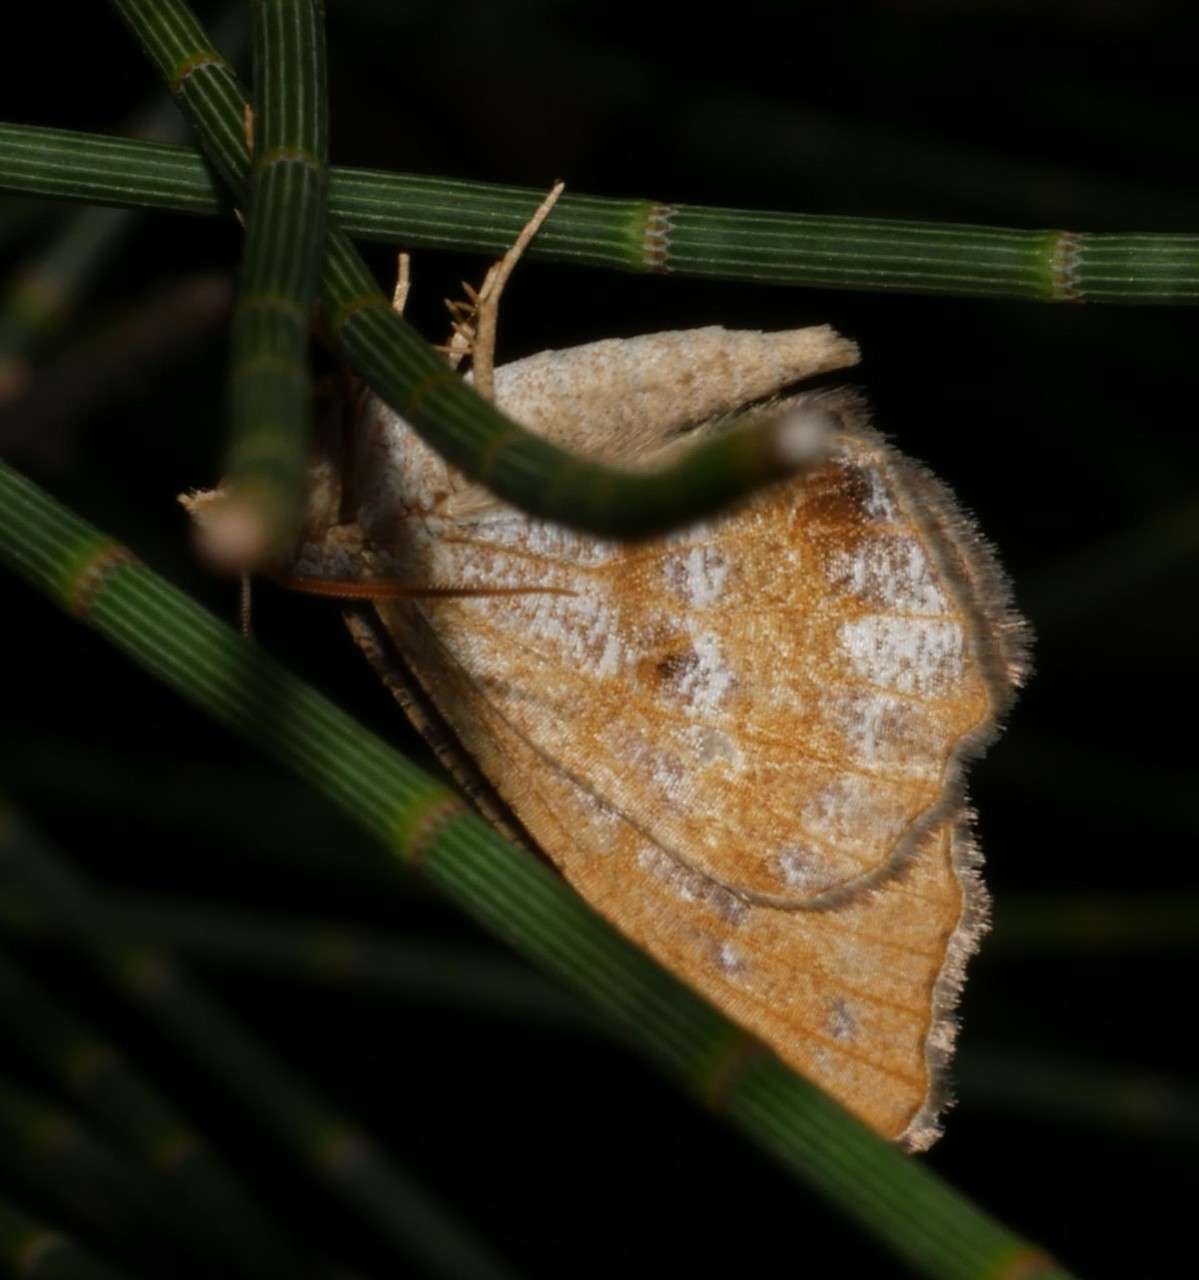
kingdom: Animalia
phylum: Arthropoda
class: Insecta
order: Lepidoptera
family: Geometridae
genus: Dissomorphia
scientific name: Dissomorphia australiaria
